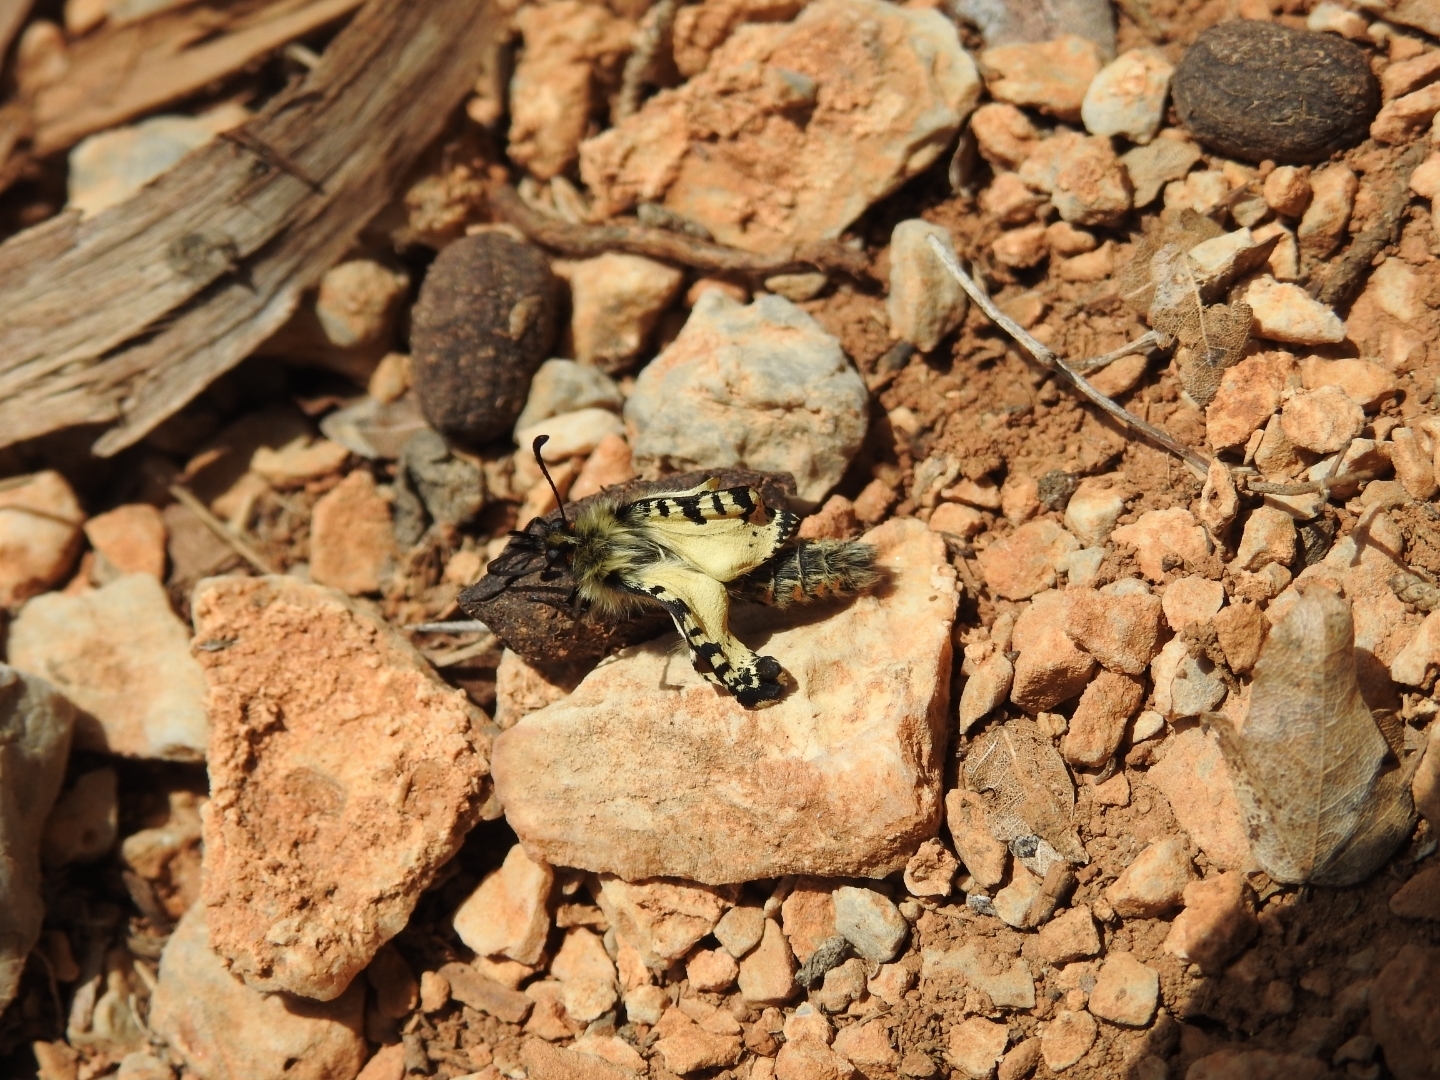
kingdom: Animalia
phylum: Arthropoda
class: Insecta
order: Lepidoptera
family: Papilionidae
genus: Zerynthia
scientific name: Zerynthia cretica
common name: Cretan festoon
